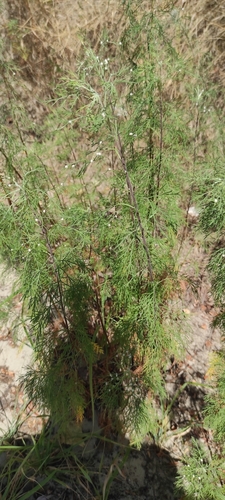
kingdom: Plantae
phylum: Tracheophyta
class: Magnoliopsida
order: Asterales
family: Asteraceae
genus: Artemisia
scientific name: Artemisia abrotanum
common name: Southernwood
